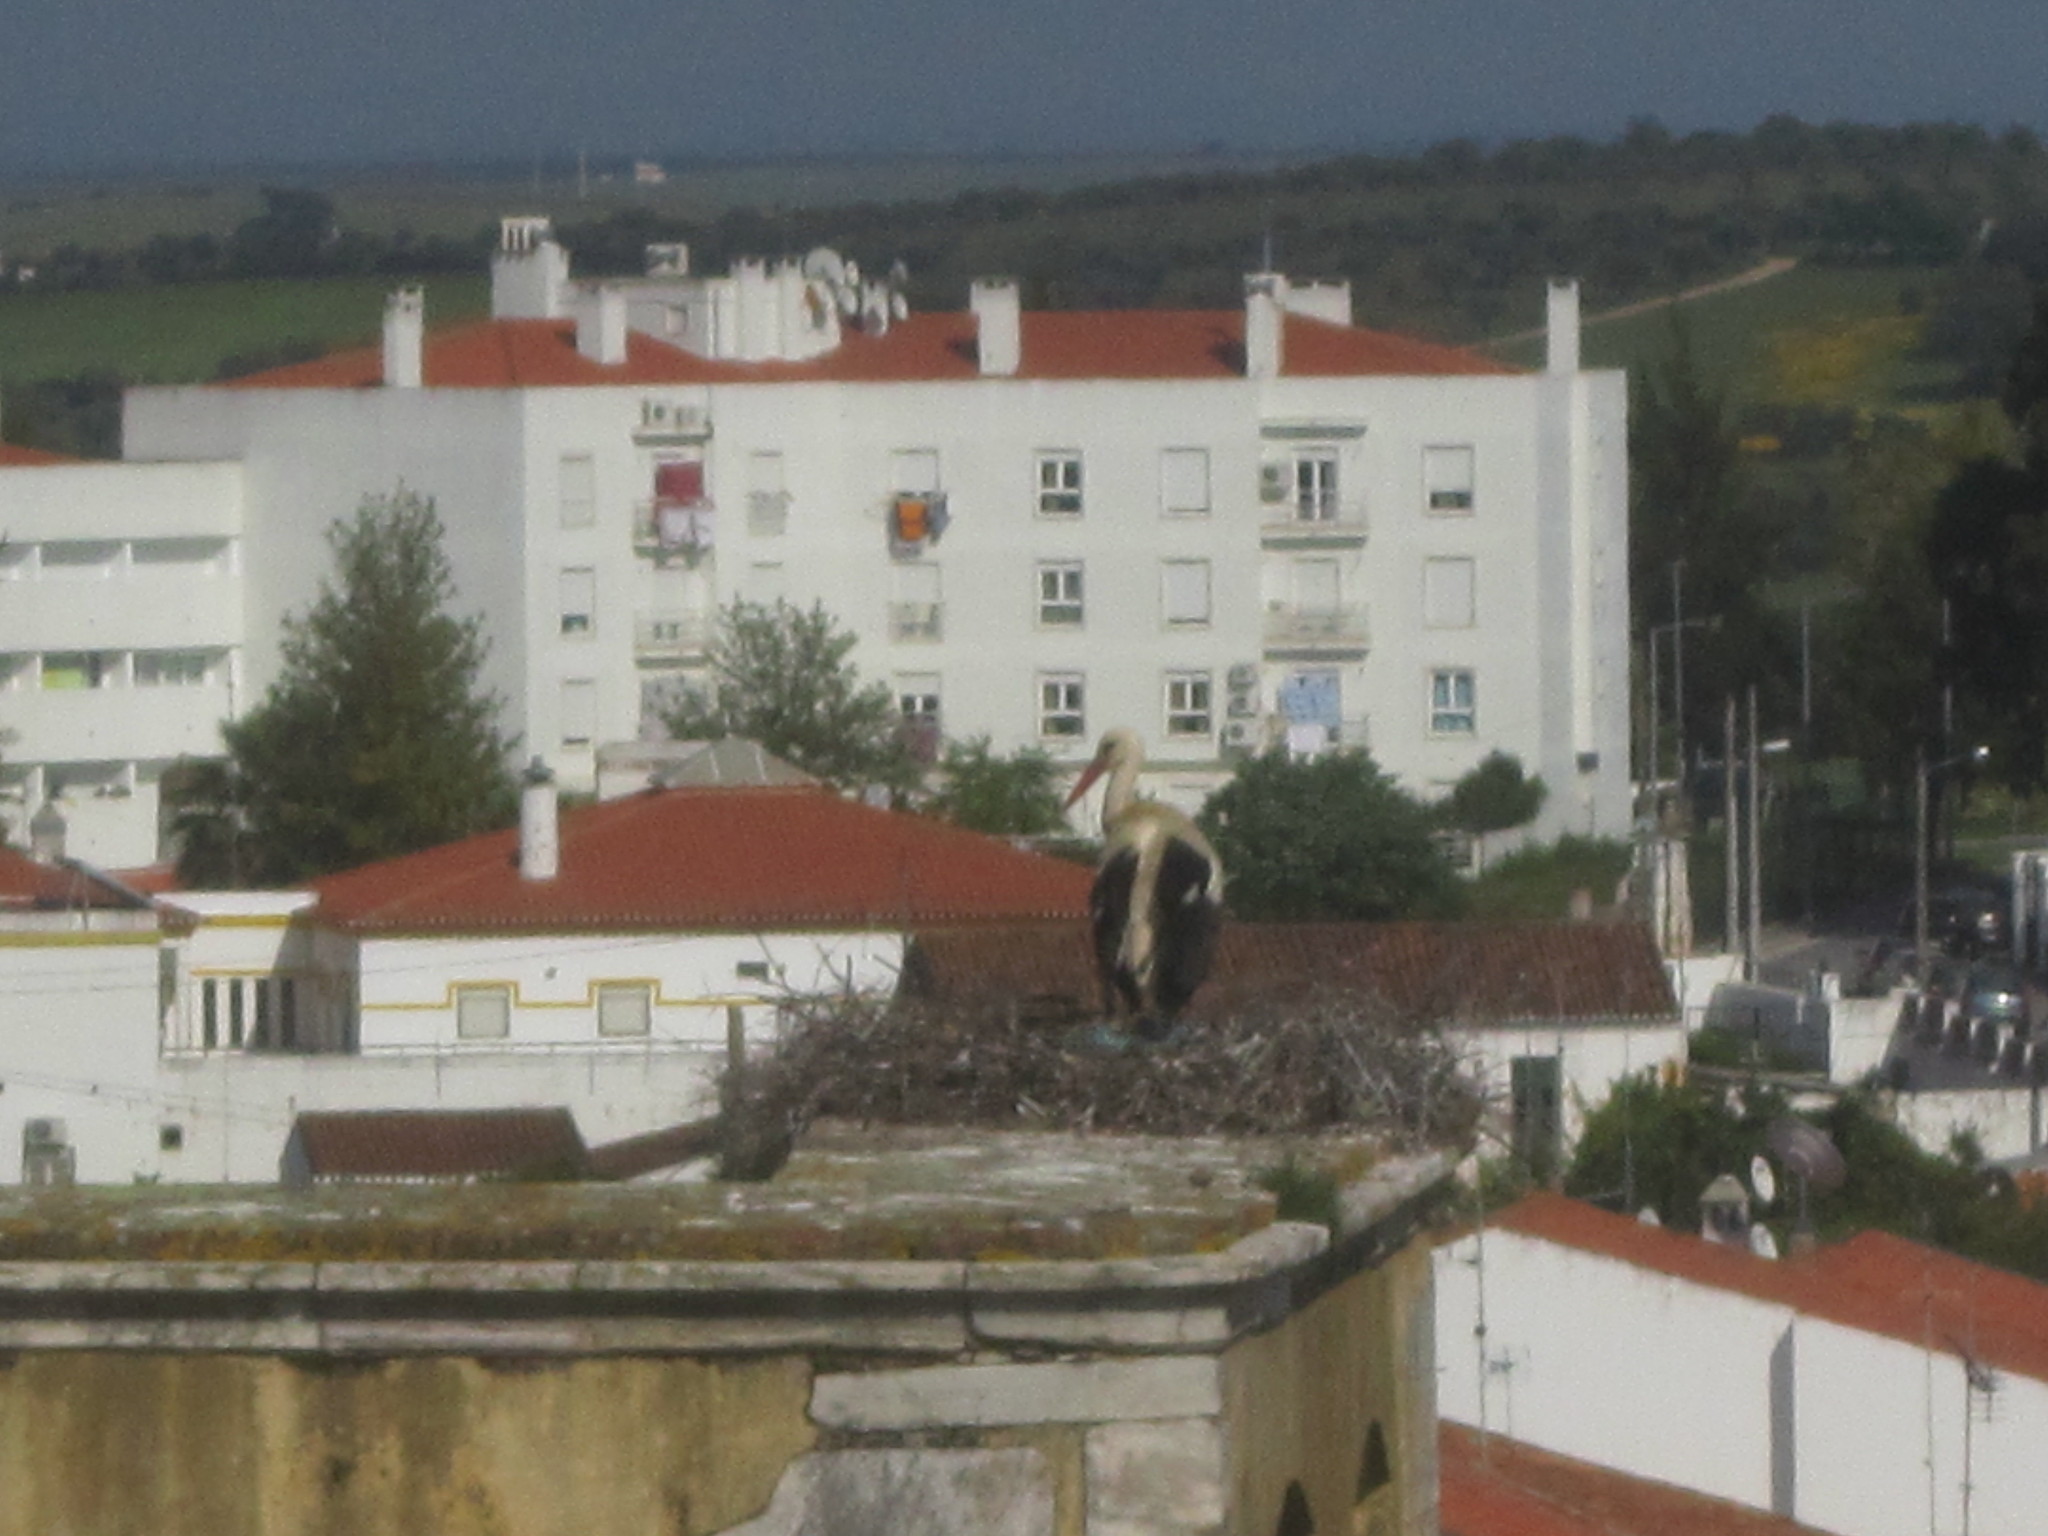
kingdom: Animalia
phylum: Chordata
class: Aves
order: Ciconiiformes
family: Ciconiidae
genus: Ciconia
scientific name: Ciconia ciconia
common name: White stork
